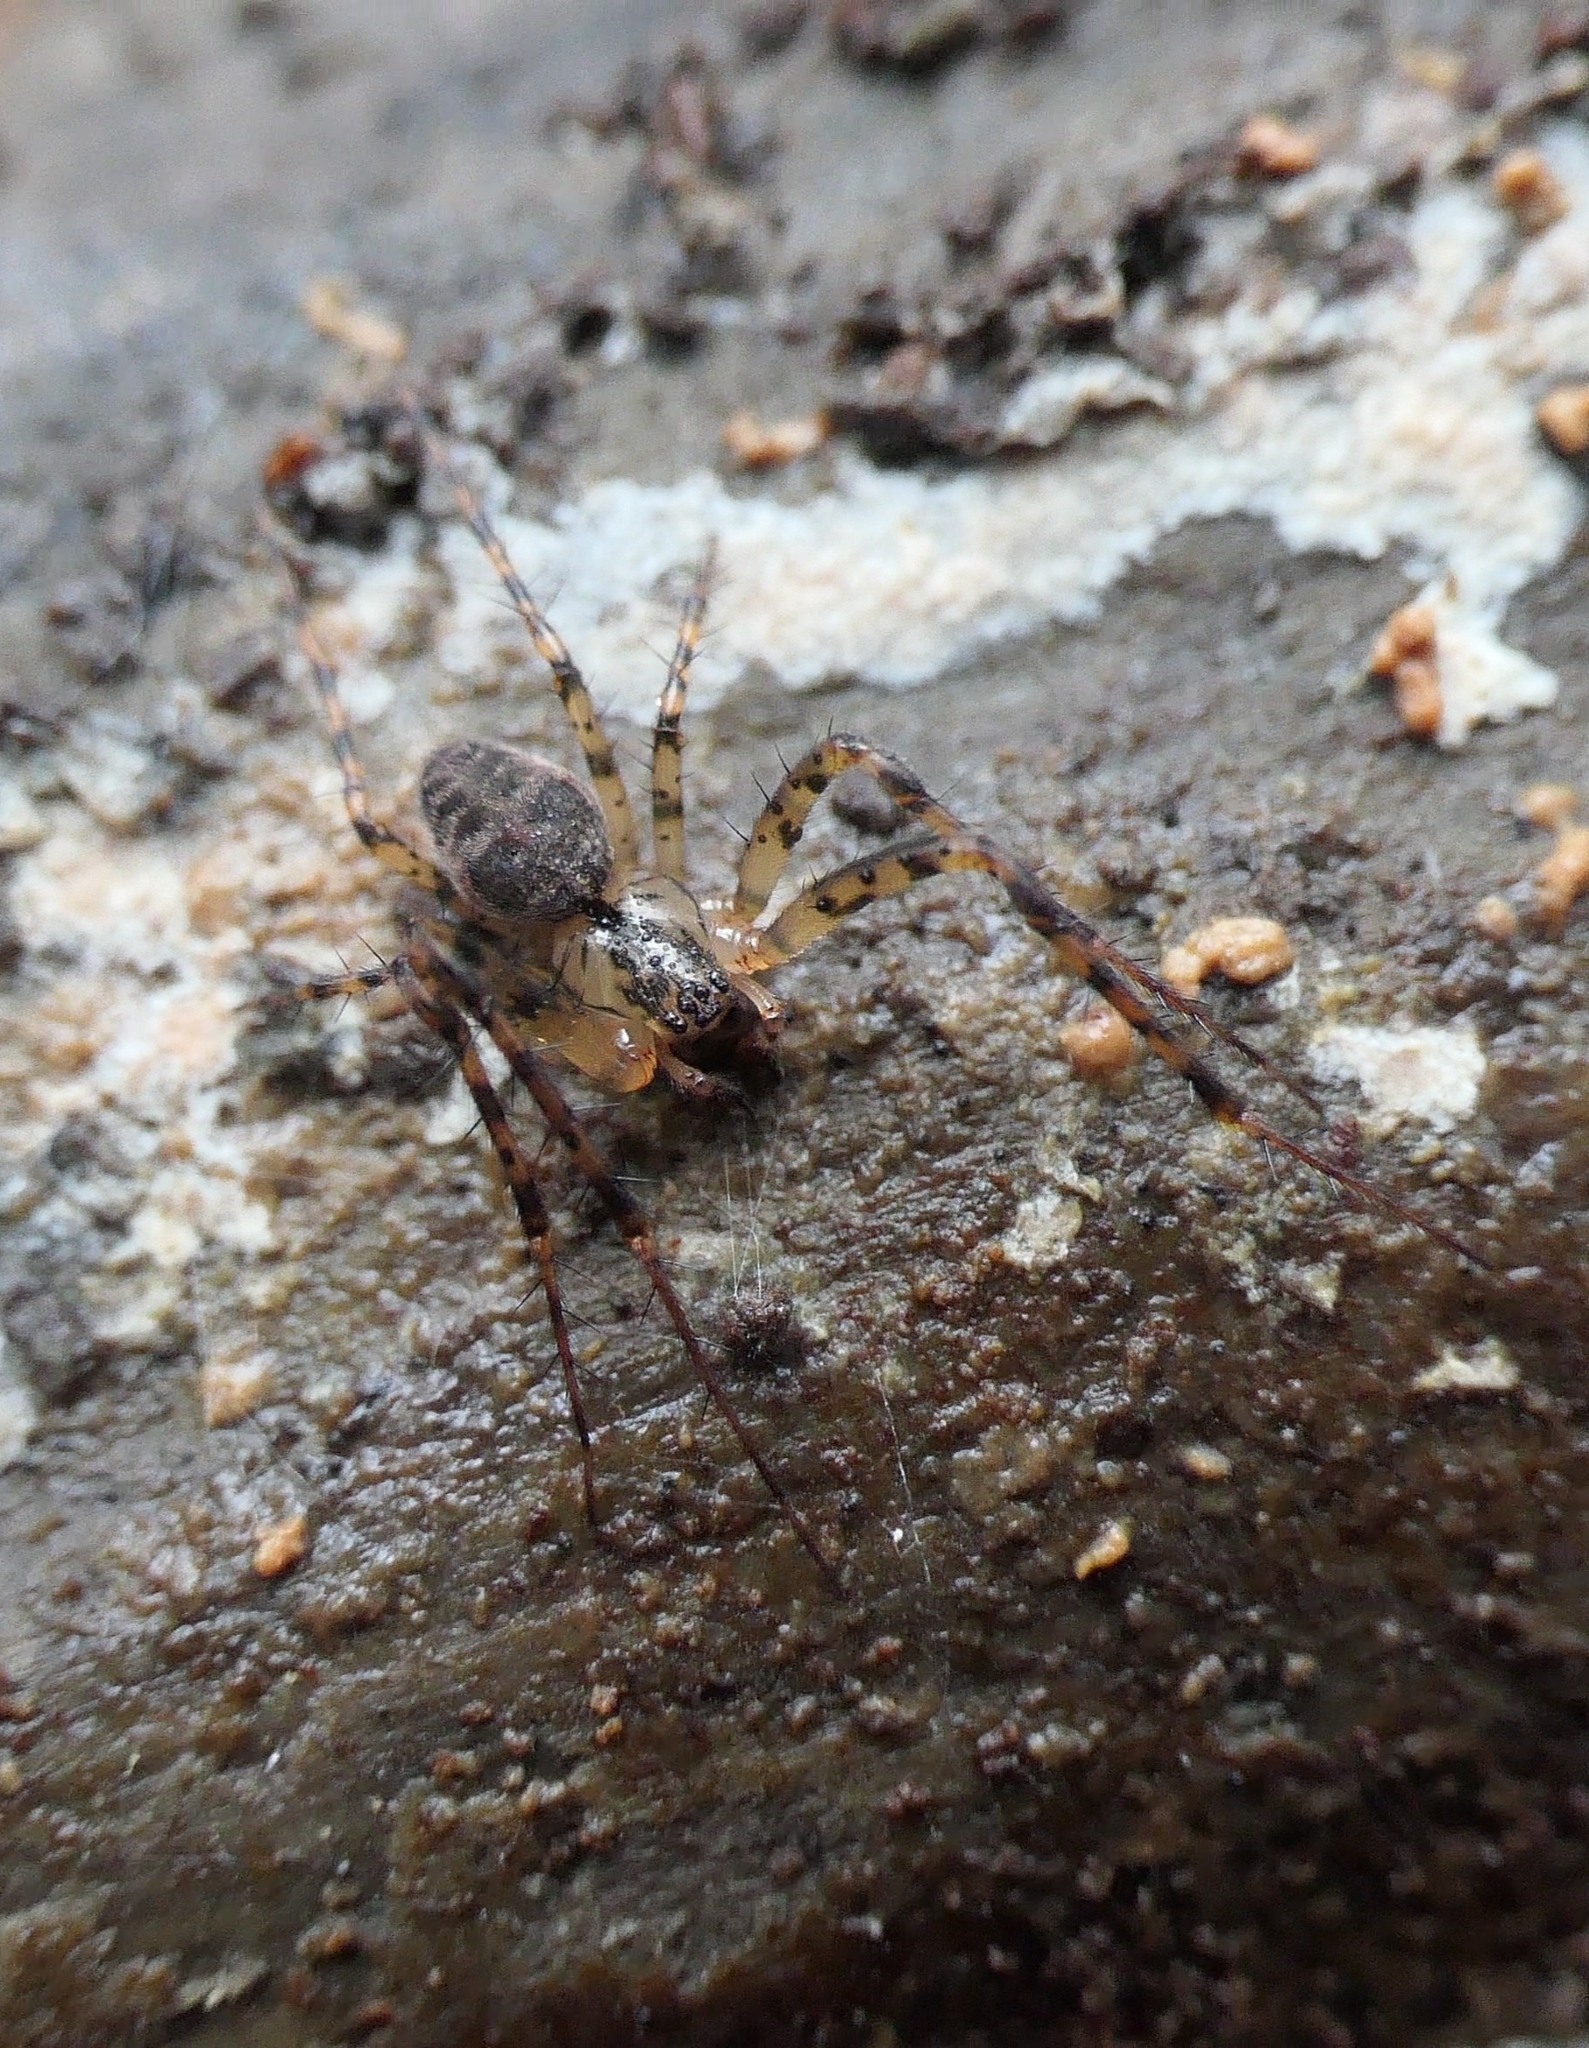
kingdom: Animalia
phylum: Arthropoda
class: Arachnida
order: Araneae
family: Tetragnathidae
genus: Metellina
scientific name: Metellina merianae
